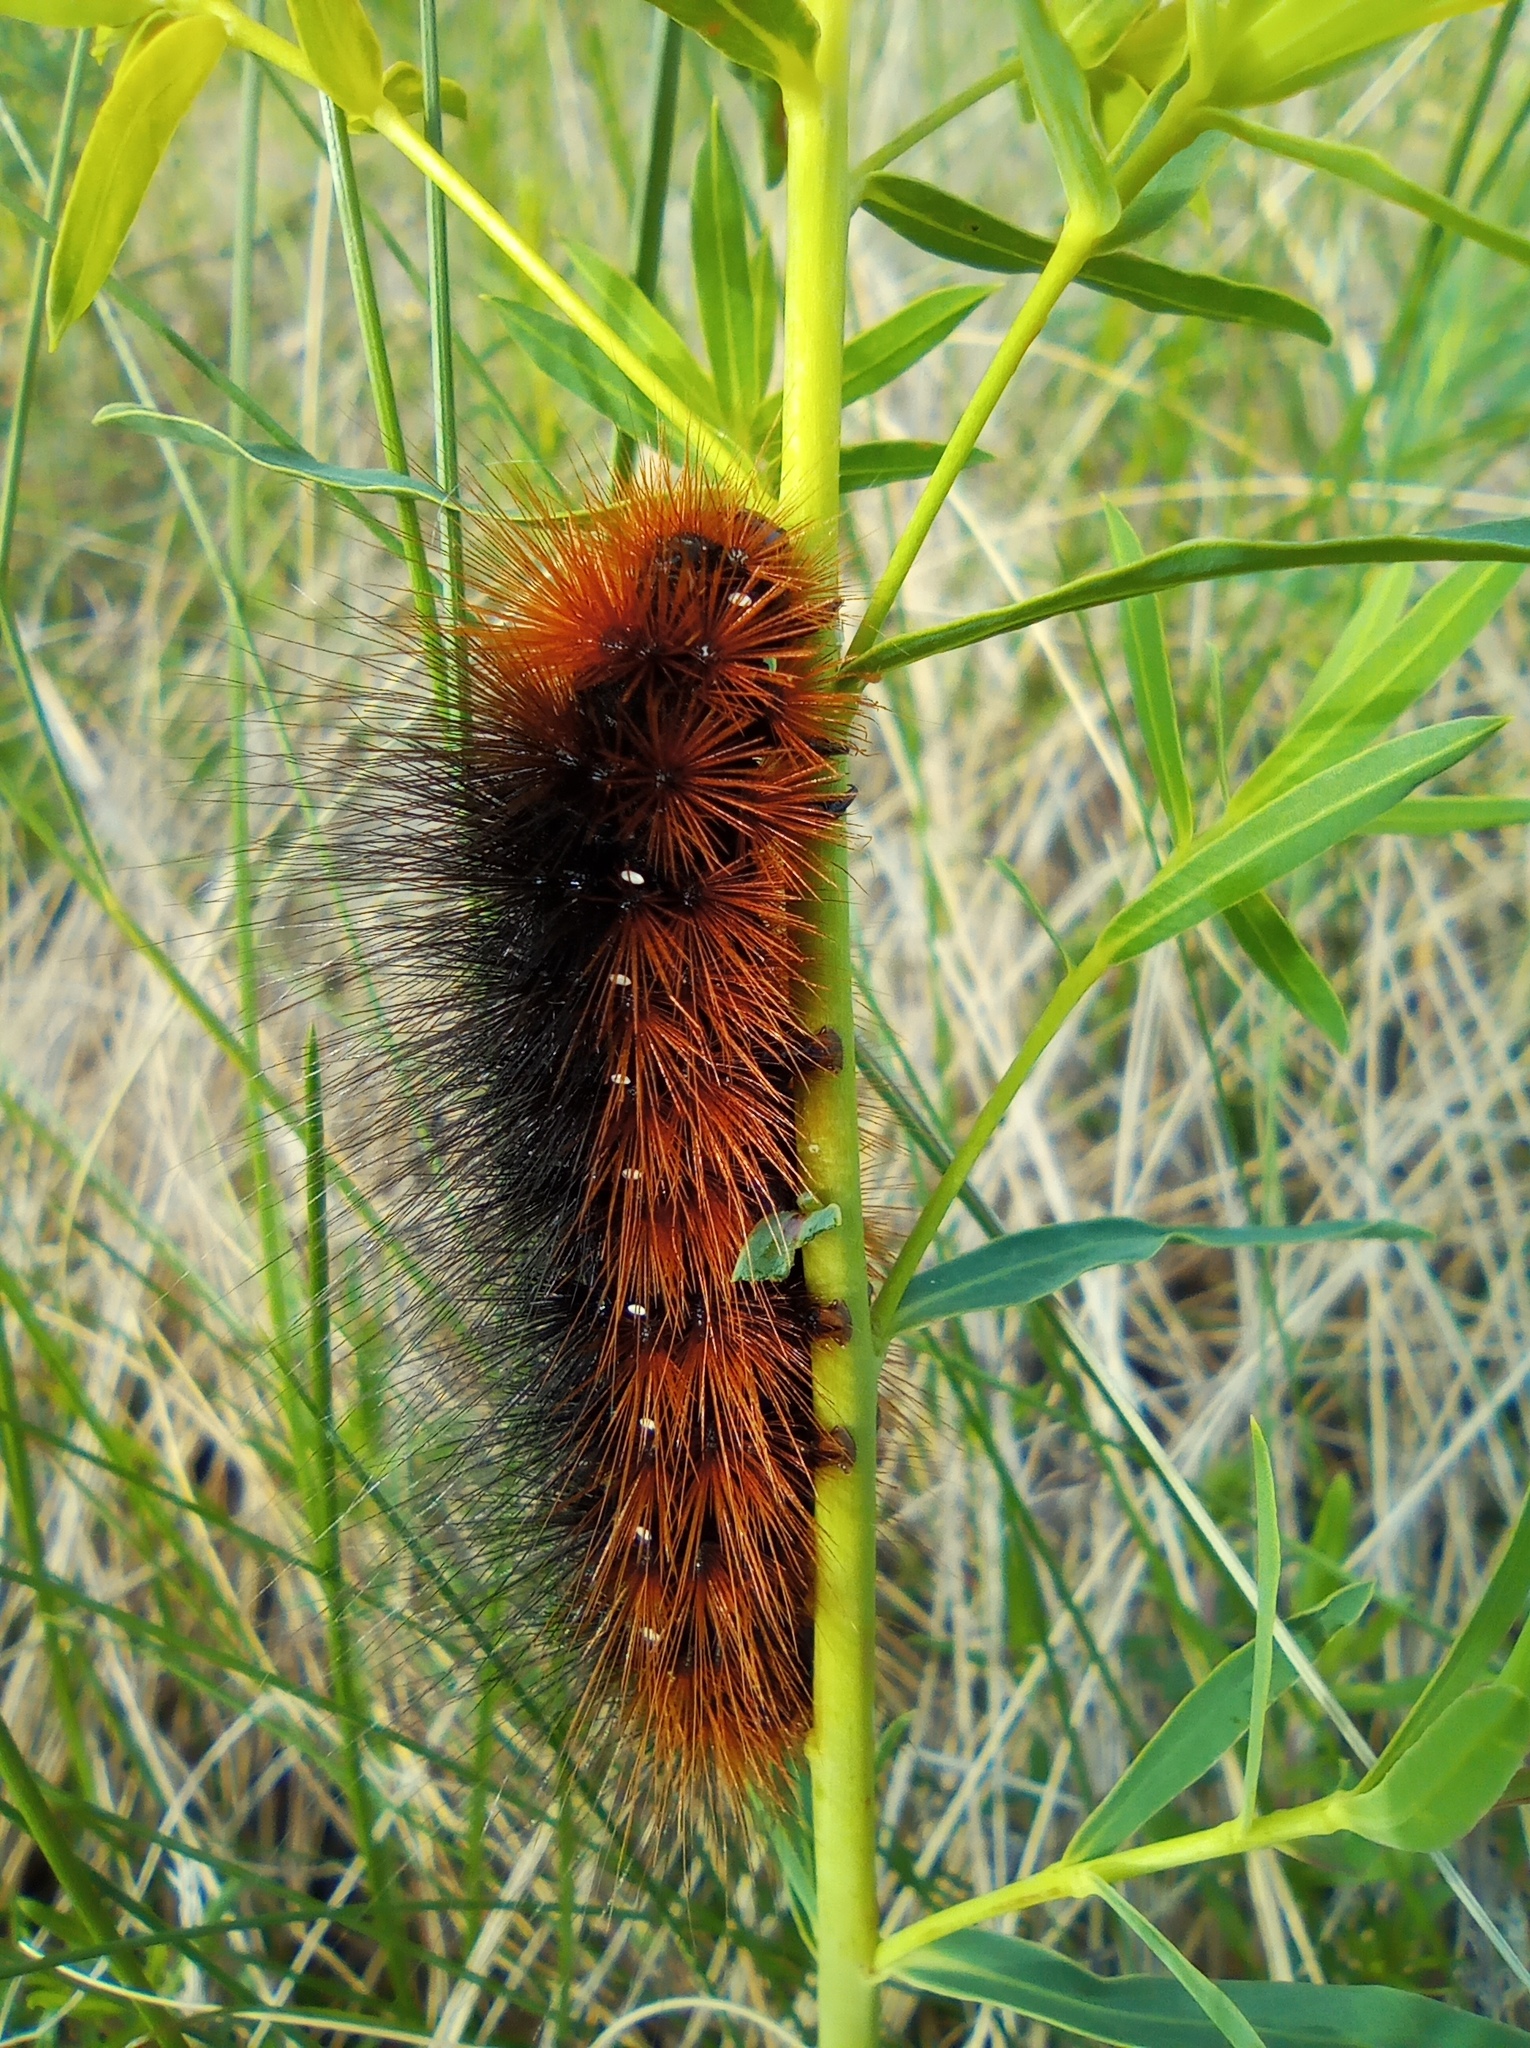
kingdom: Animalia
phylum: Arthropoda
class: Insecta
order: Lepidoptera
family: Erebidae
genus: Arctia
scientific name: Arctia caja
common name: Garden tiger
